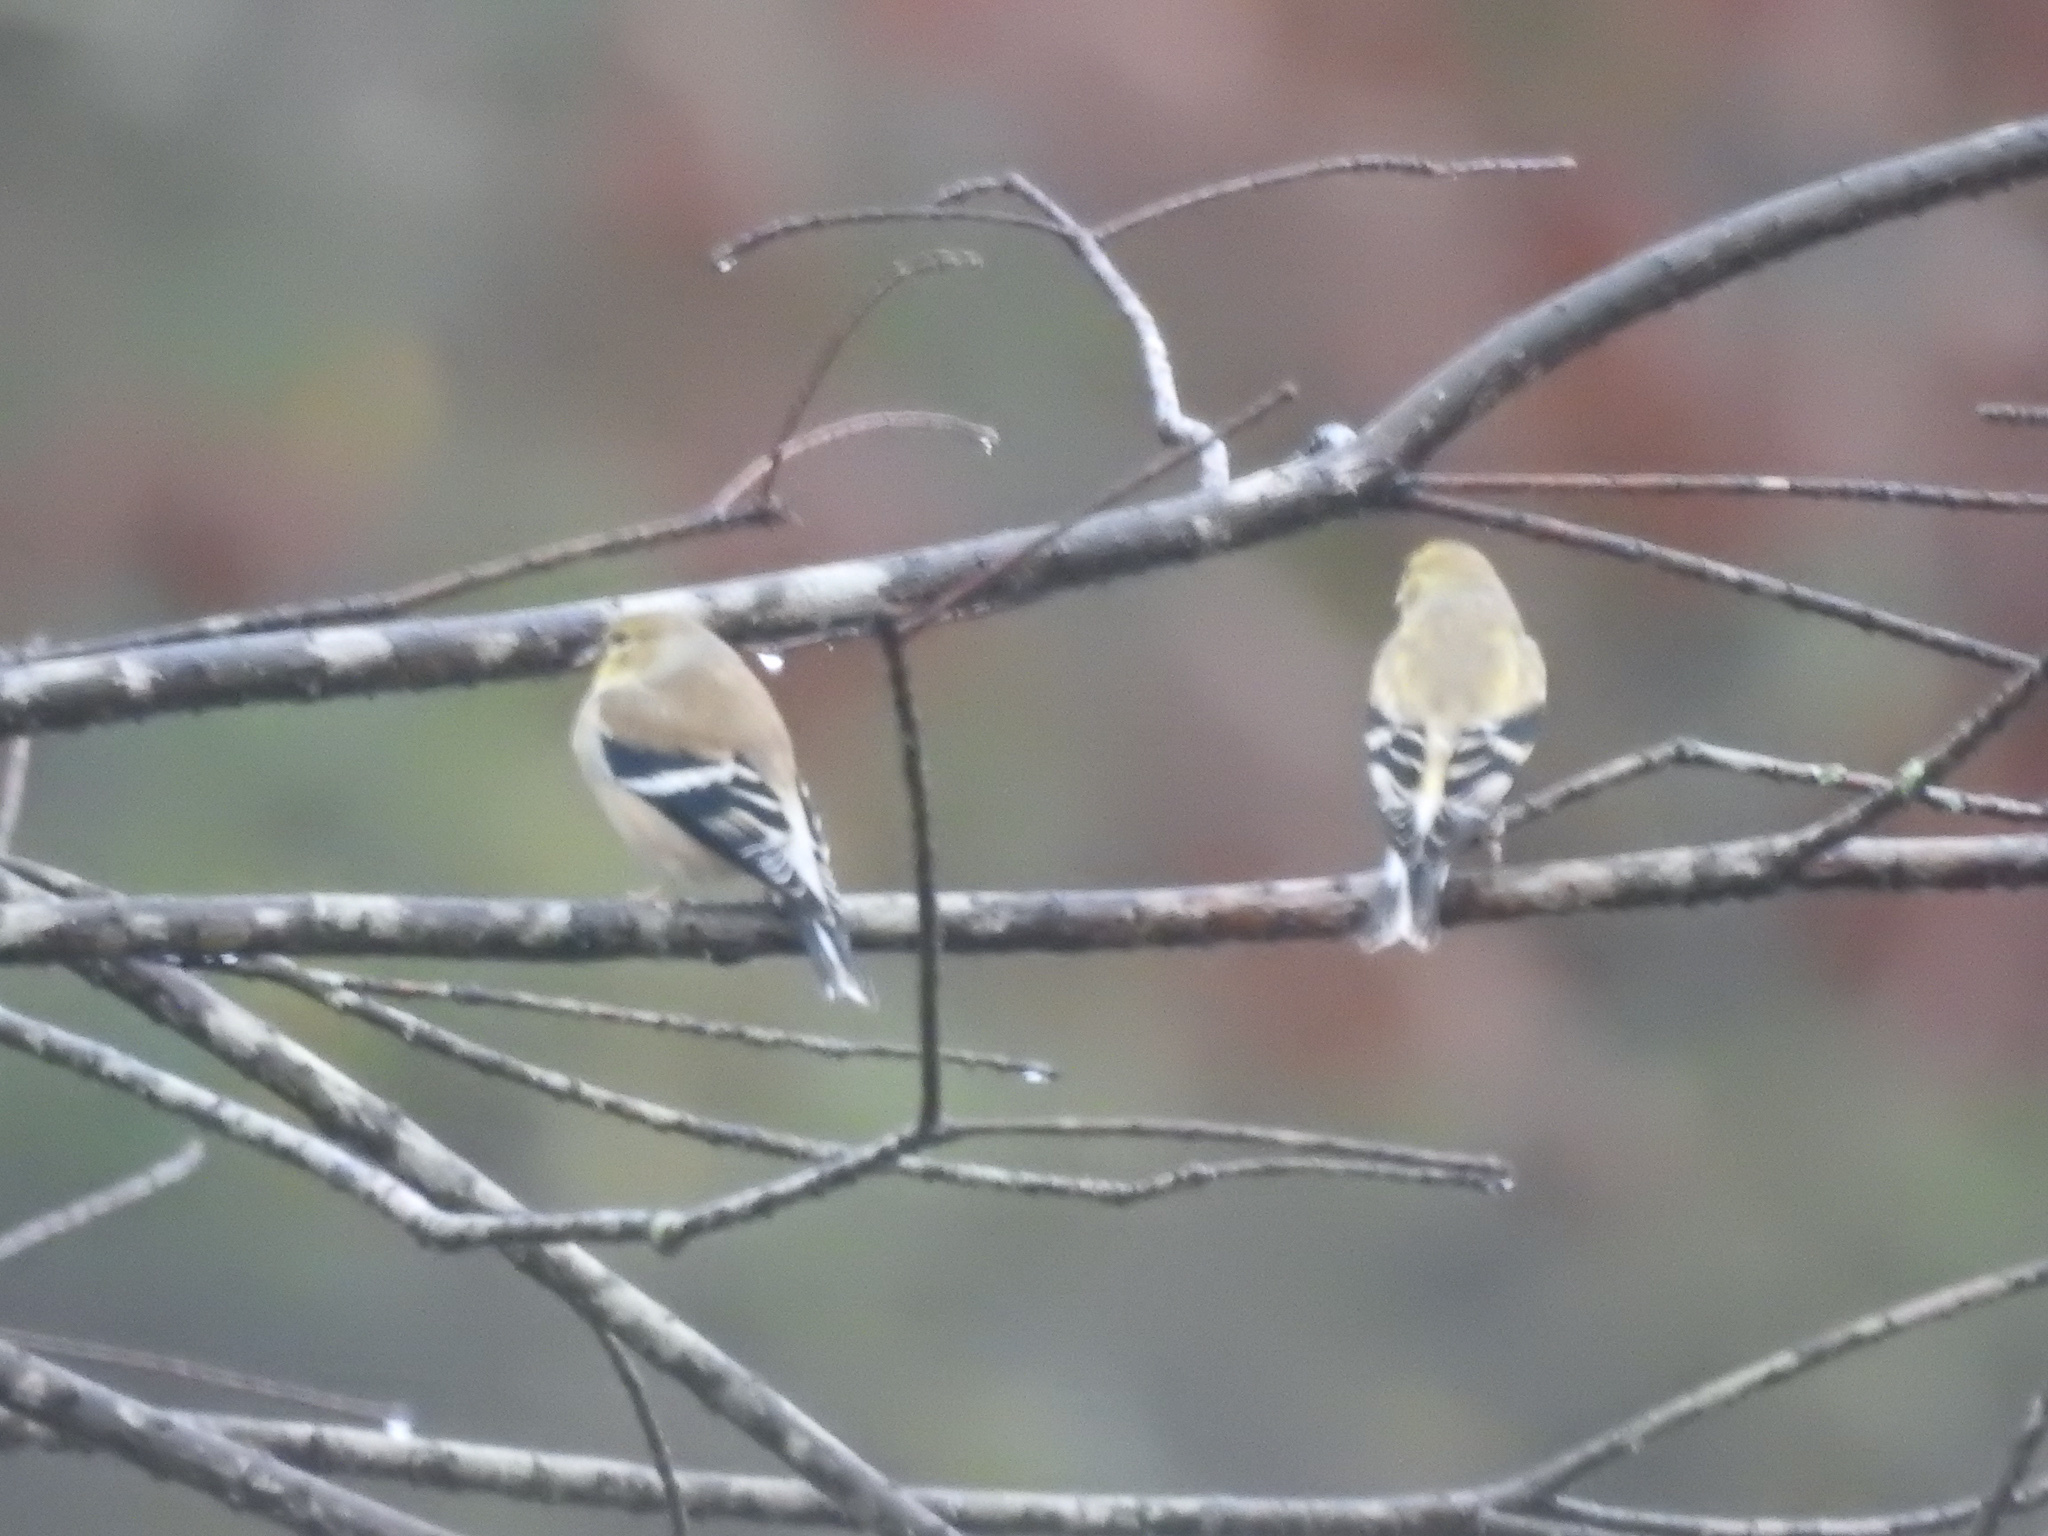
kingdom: Animalia
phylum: Chordata
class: Aves
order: Passeriformes
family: Fringillidae
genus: Spinus
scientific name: Spinus tristis
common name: American goldfinch
